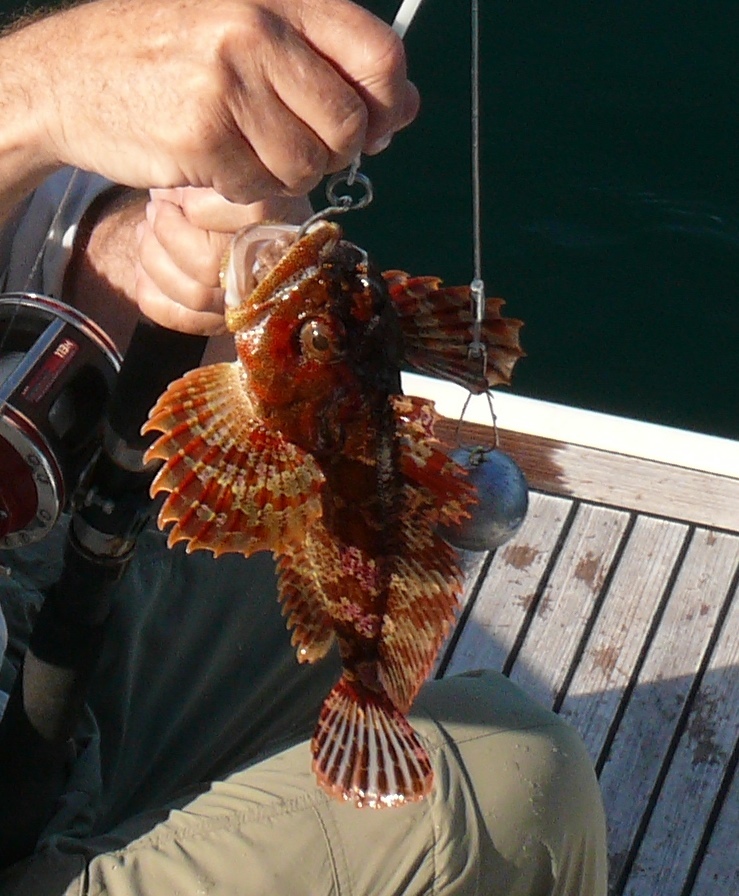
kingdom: Animalia
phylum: Chordata
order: Scorpaeniformes
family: Cottidae
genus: Hemilepidotus
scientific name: Hemilepidotus hemilepidotus
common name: Red irish lord
